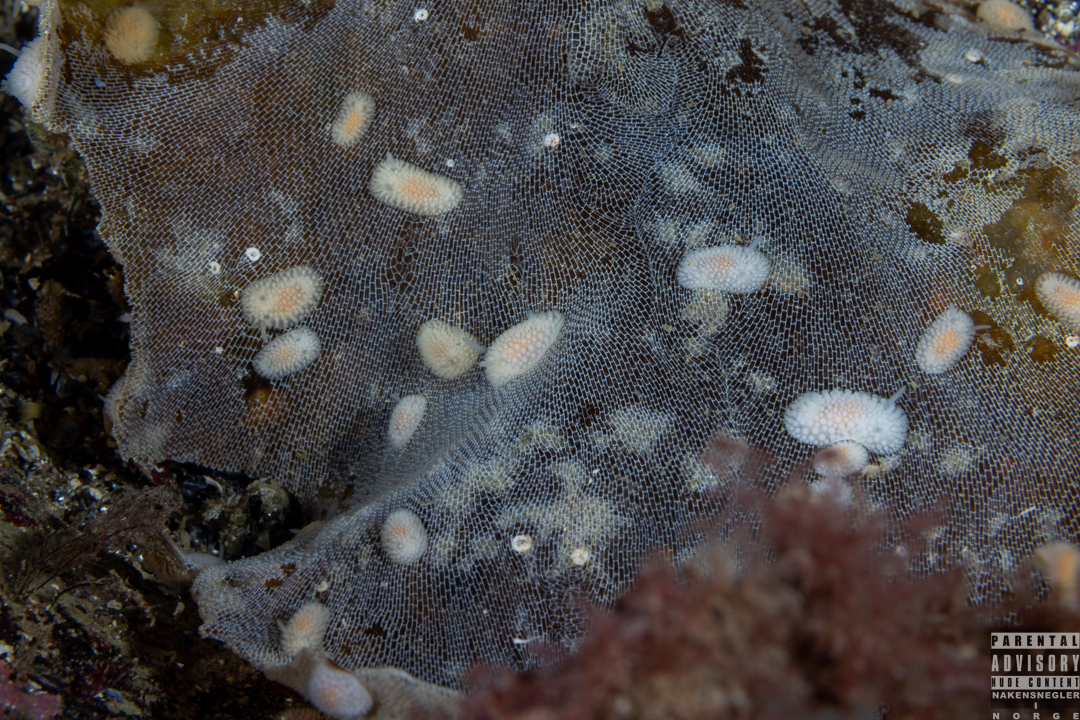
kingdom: Animalia
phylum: Mollusca
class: Gastropoda
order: Nudibranchia
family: Onchidorididae
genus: Onchidoris
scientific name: Onchidoris muricata
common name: Rough doris
